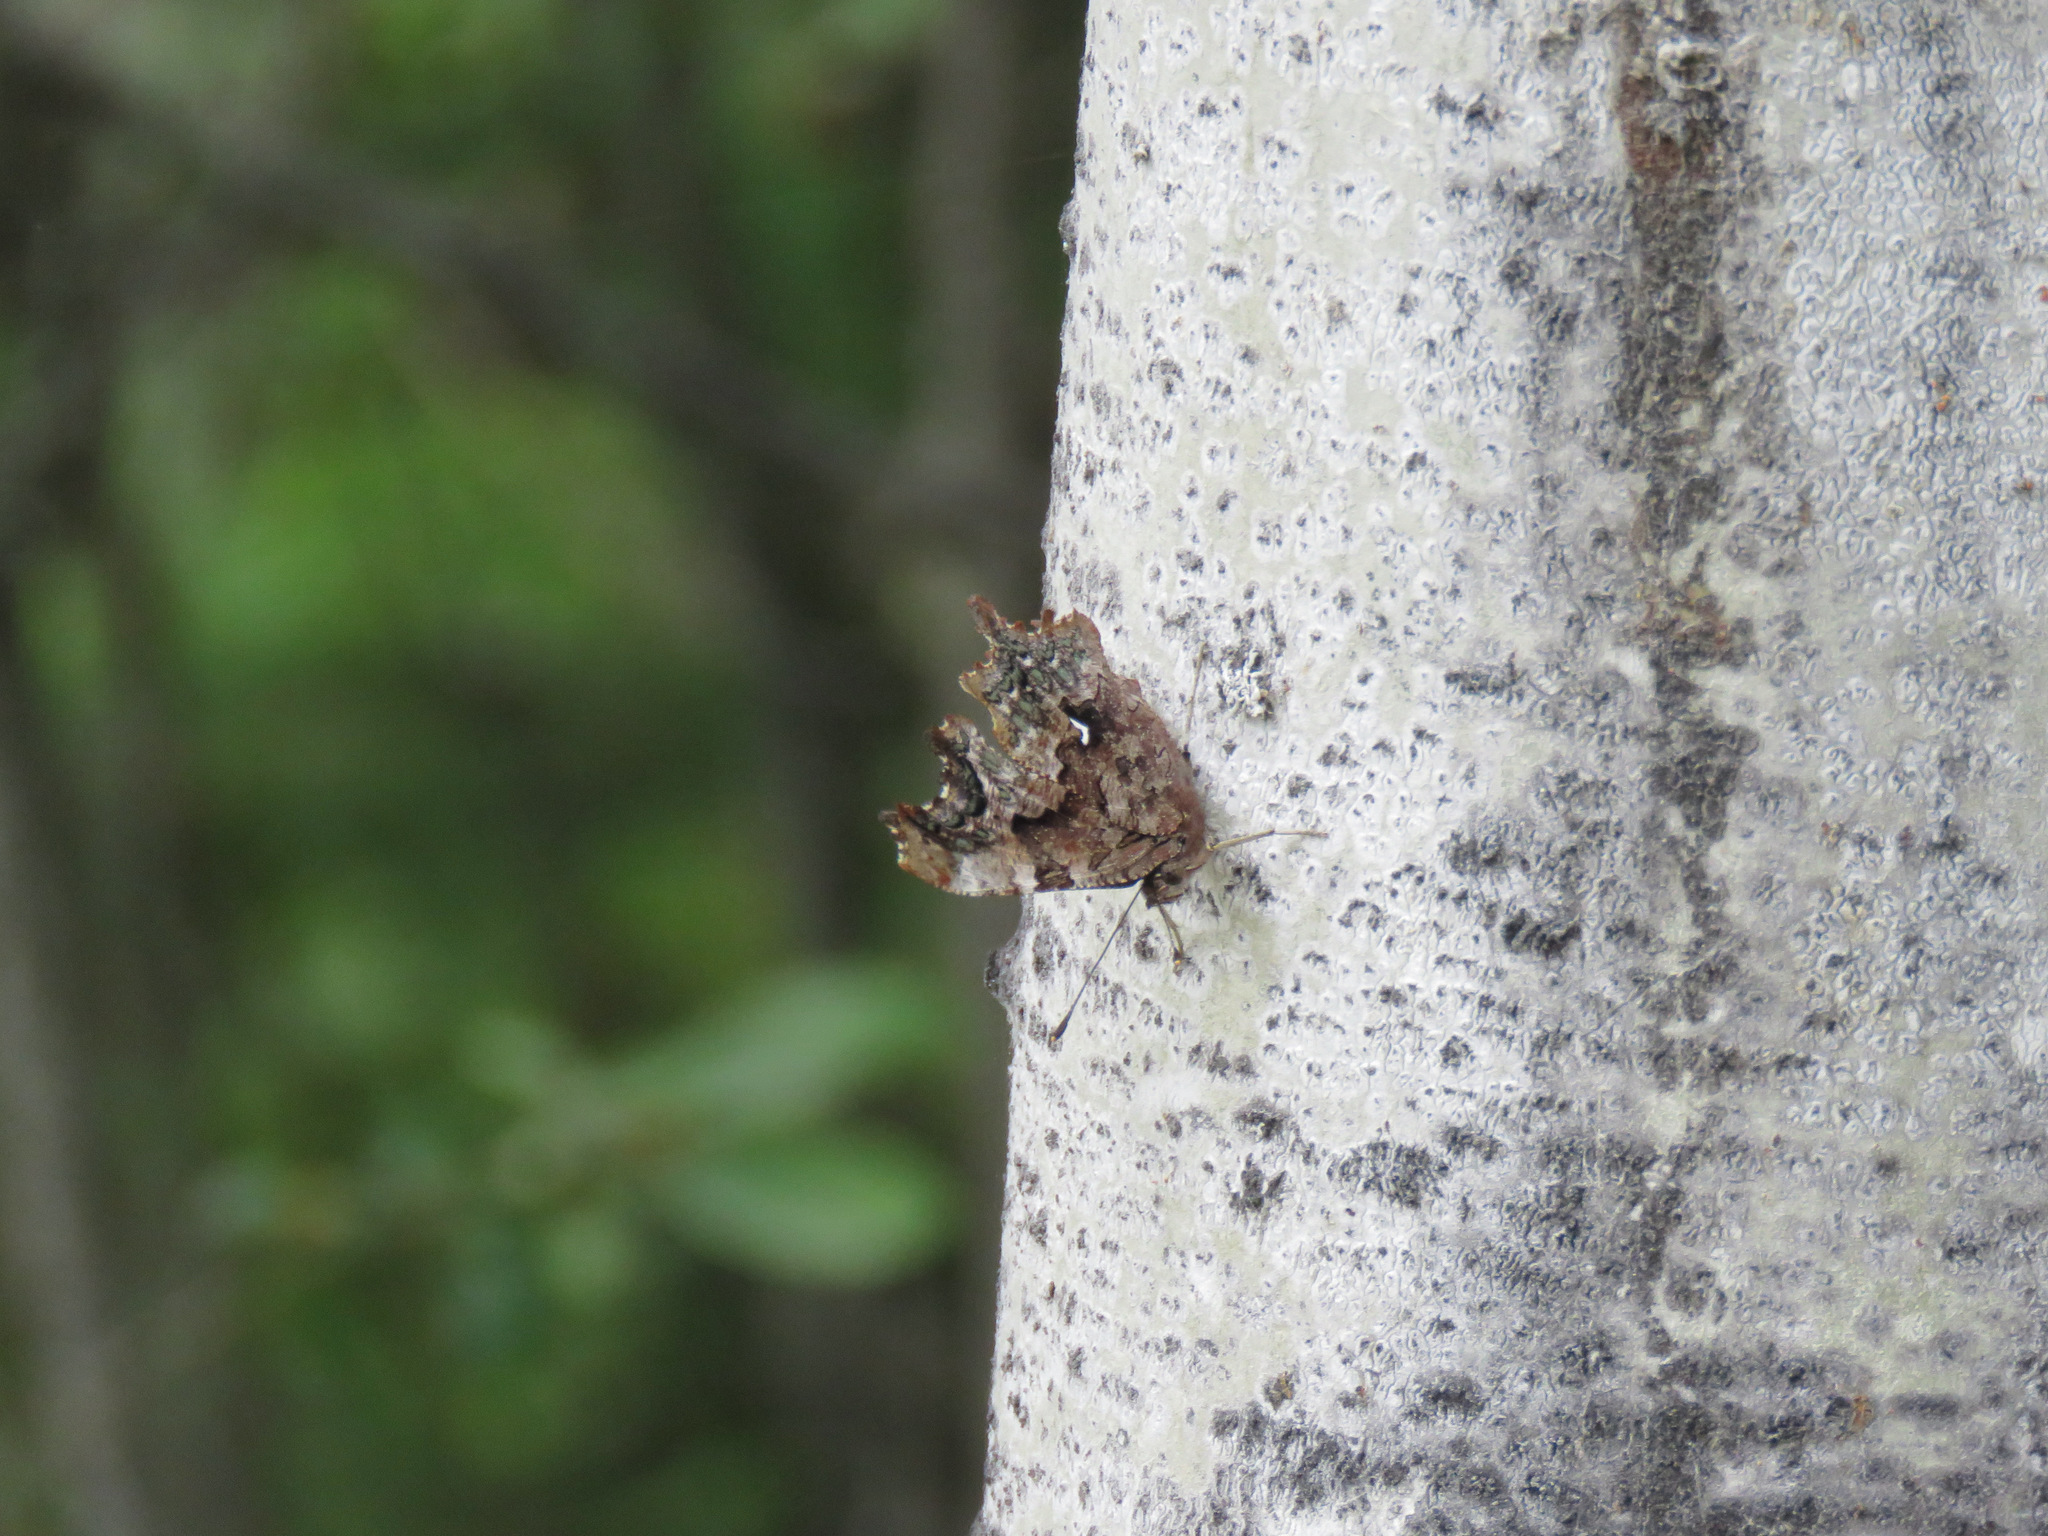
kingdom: Animalia
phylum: Arthropoda
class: Insecta
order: Lepidoptera
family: Nymphalidae
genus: Polygonia
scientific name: Polygonia faunus
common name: Green comma
